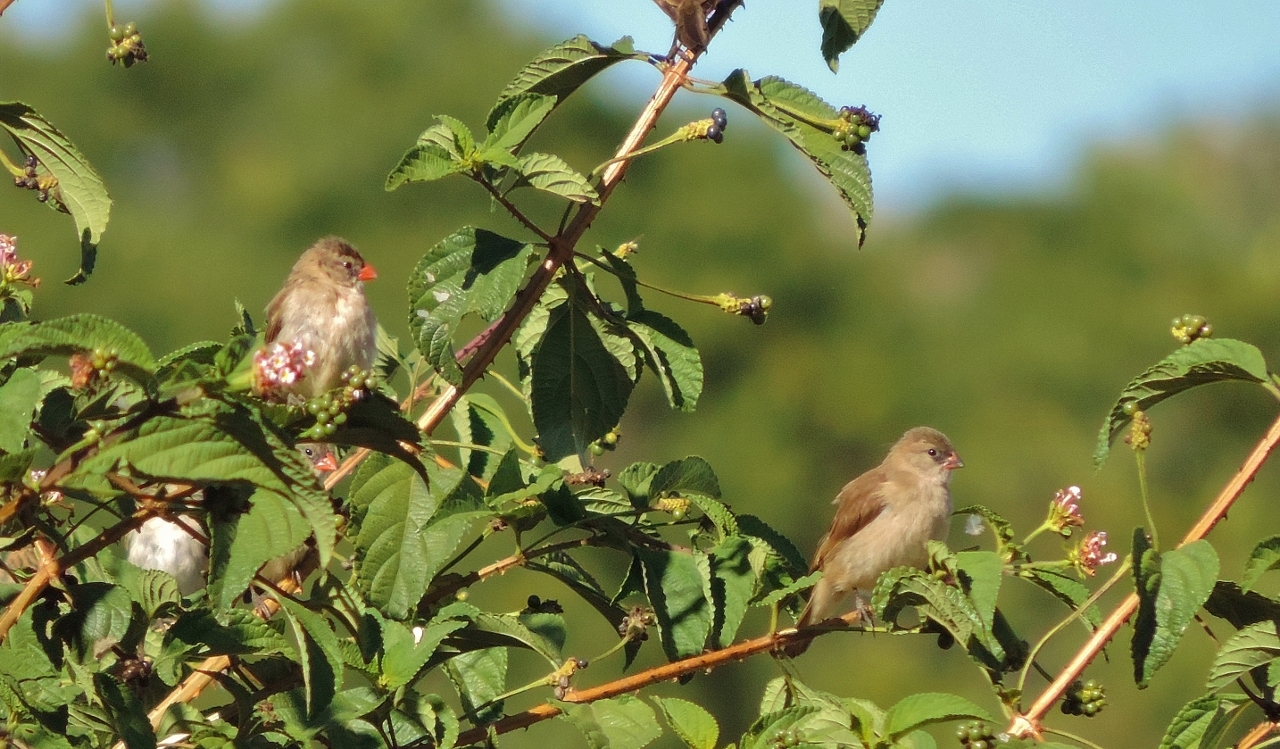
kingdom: Animalia
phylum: Chordata
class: Aves
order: Passeriformes
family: Viduidae
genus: Vidua
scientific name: Vidua macroura
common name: Pin-tailed whydah
